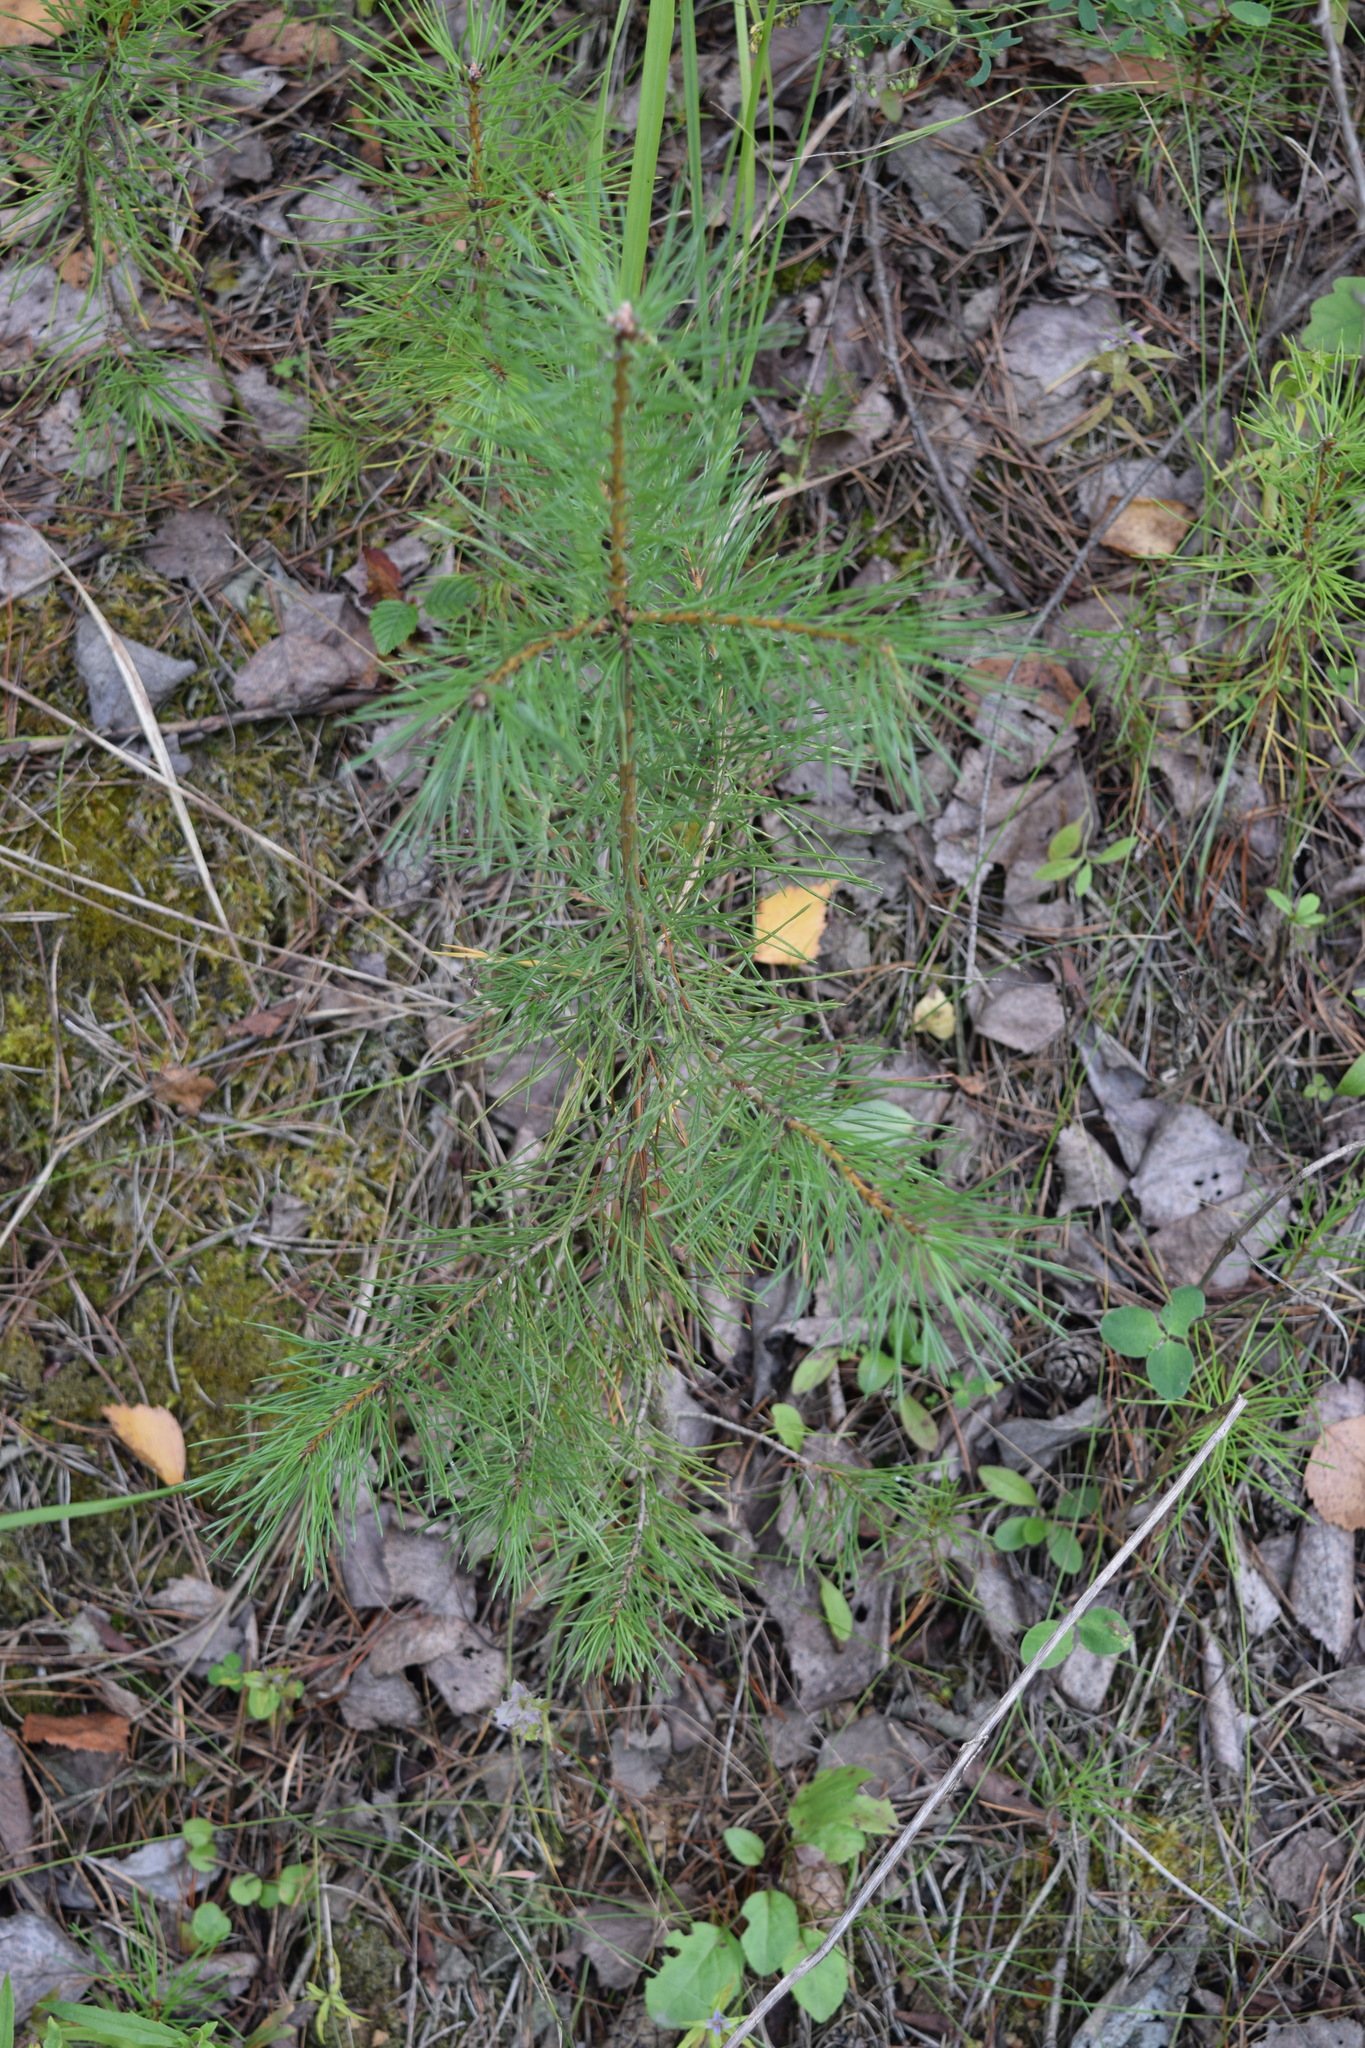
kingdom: Plantae
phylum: Tracheophyta
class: Pinopsida
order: Pinales
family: Pinaceae
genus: Pinus
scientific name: Pinus sylvestris
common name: Scots pine
